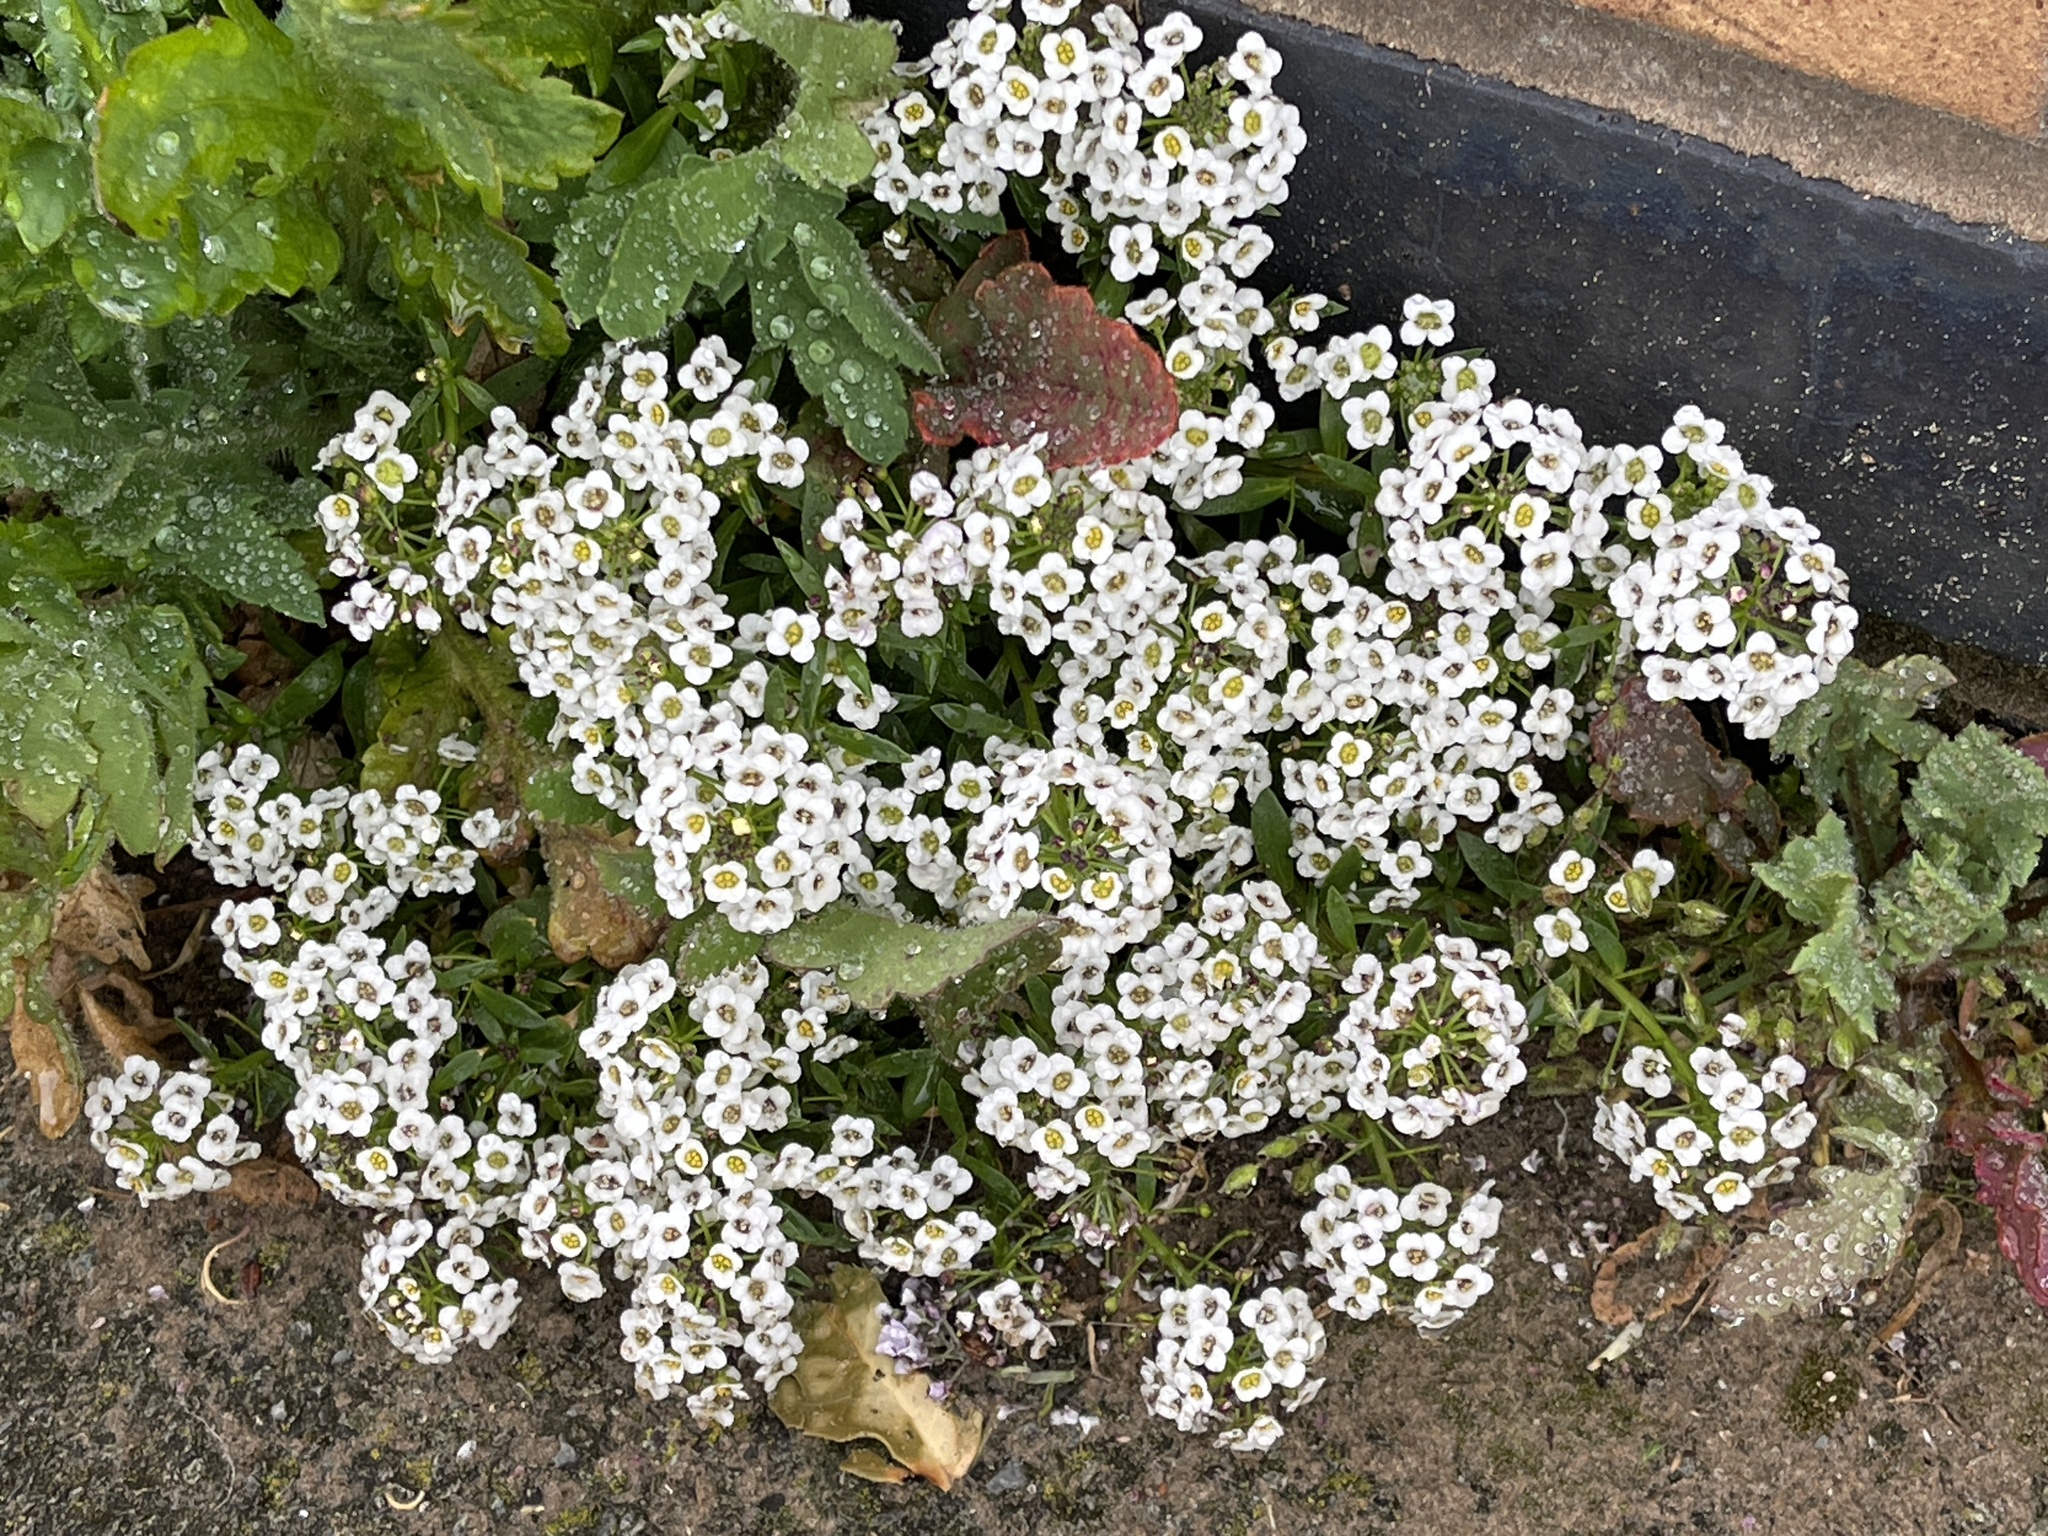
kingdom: Plantae
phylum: Tracheophyta
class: Magnoliopsida
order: Brassicales
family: Brassicaceae
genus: Lobularia
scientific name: Lobularia maritima
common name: Sweet alison
